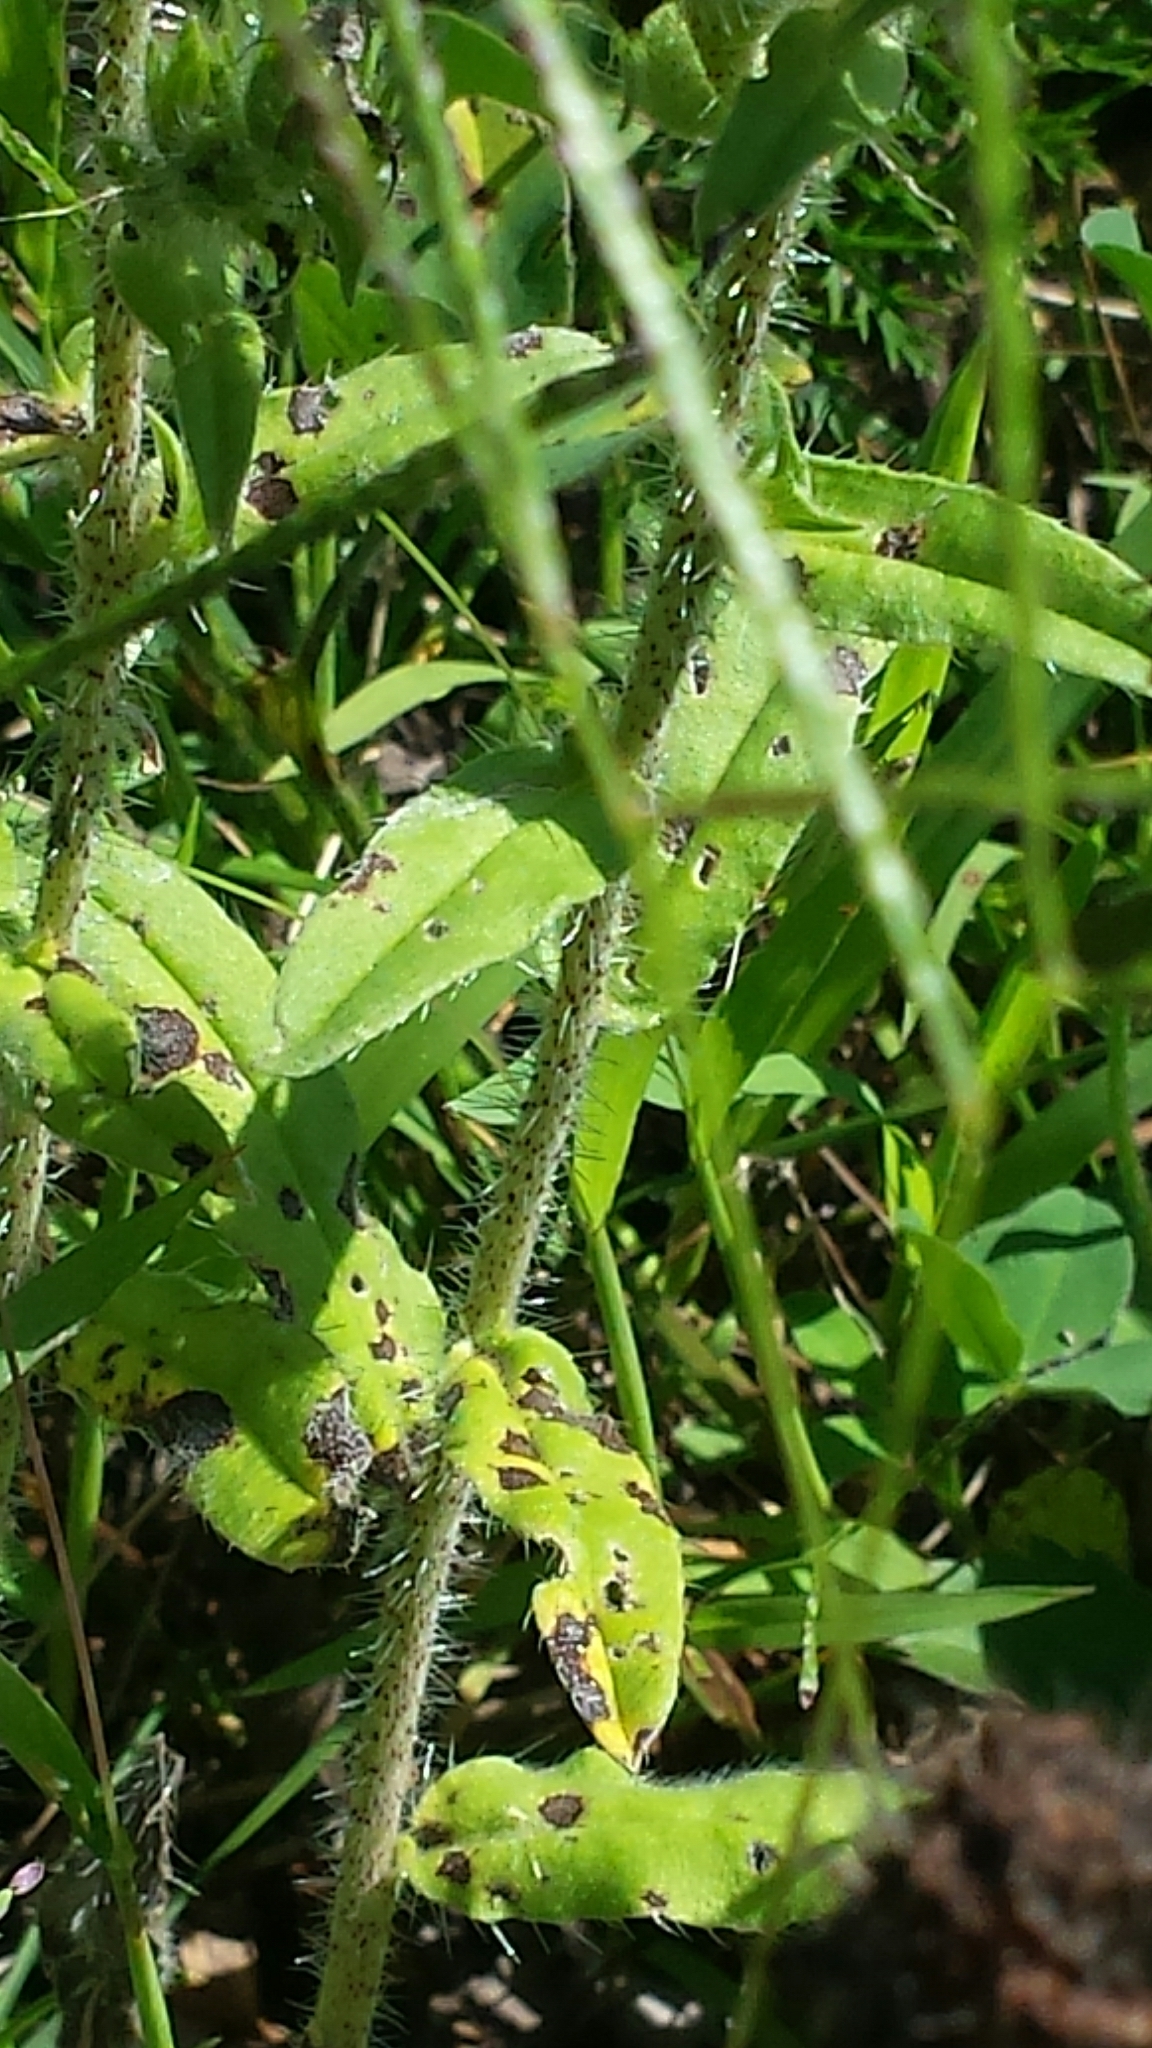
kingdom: Plantae
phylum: Tracheophyta
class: Magnoliopsida
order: Boraginales
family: Boraginaceae
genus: Echium
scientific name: Echium vulgare
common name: Common viper's bugloss
